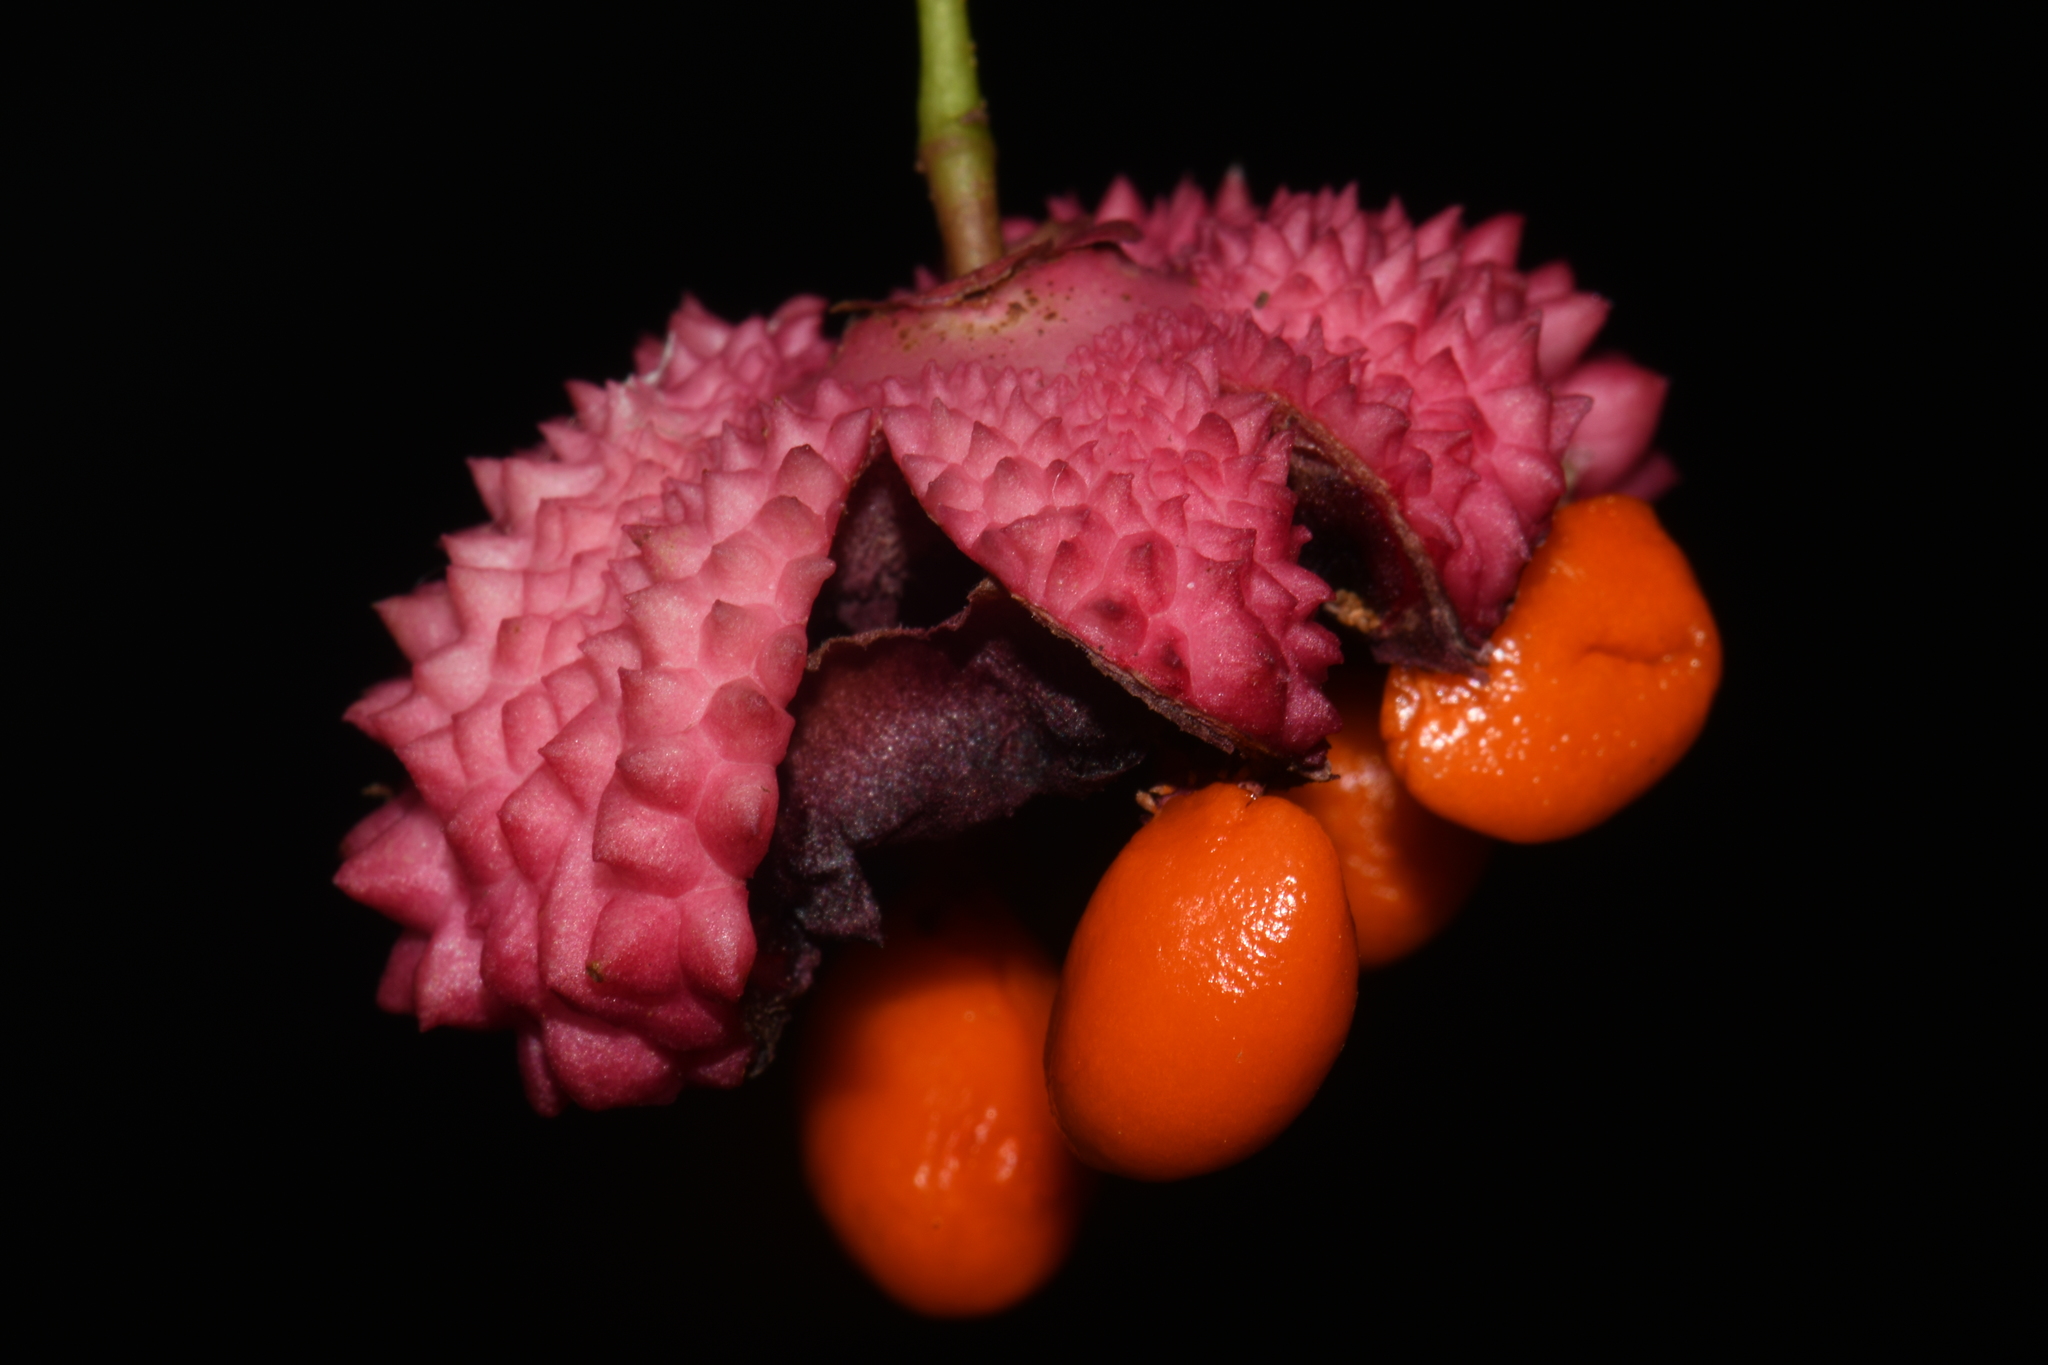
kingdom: Plantae
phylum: Tracheophyta
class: Magnoliopsida
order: Celastrales
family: Celastraceae
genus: Euonymus
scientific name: Euonymus americanus
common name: Bursting-heart
